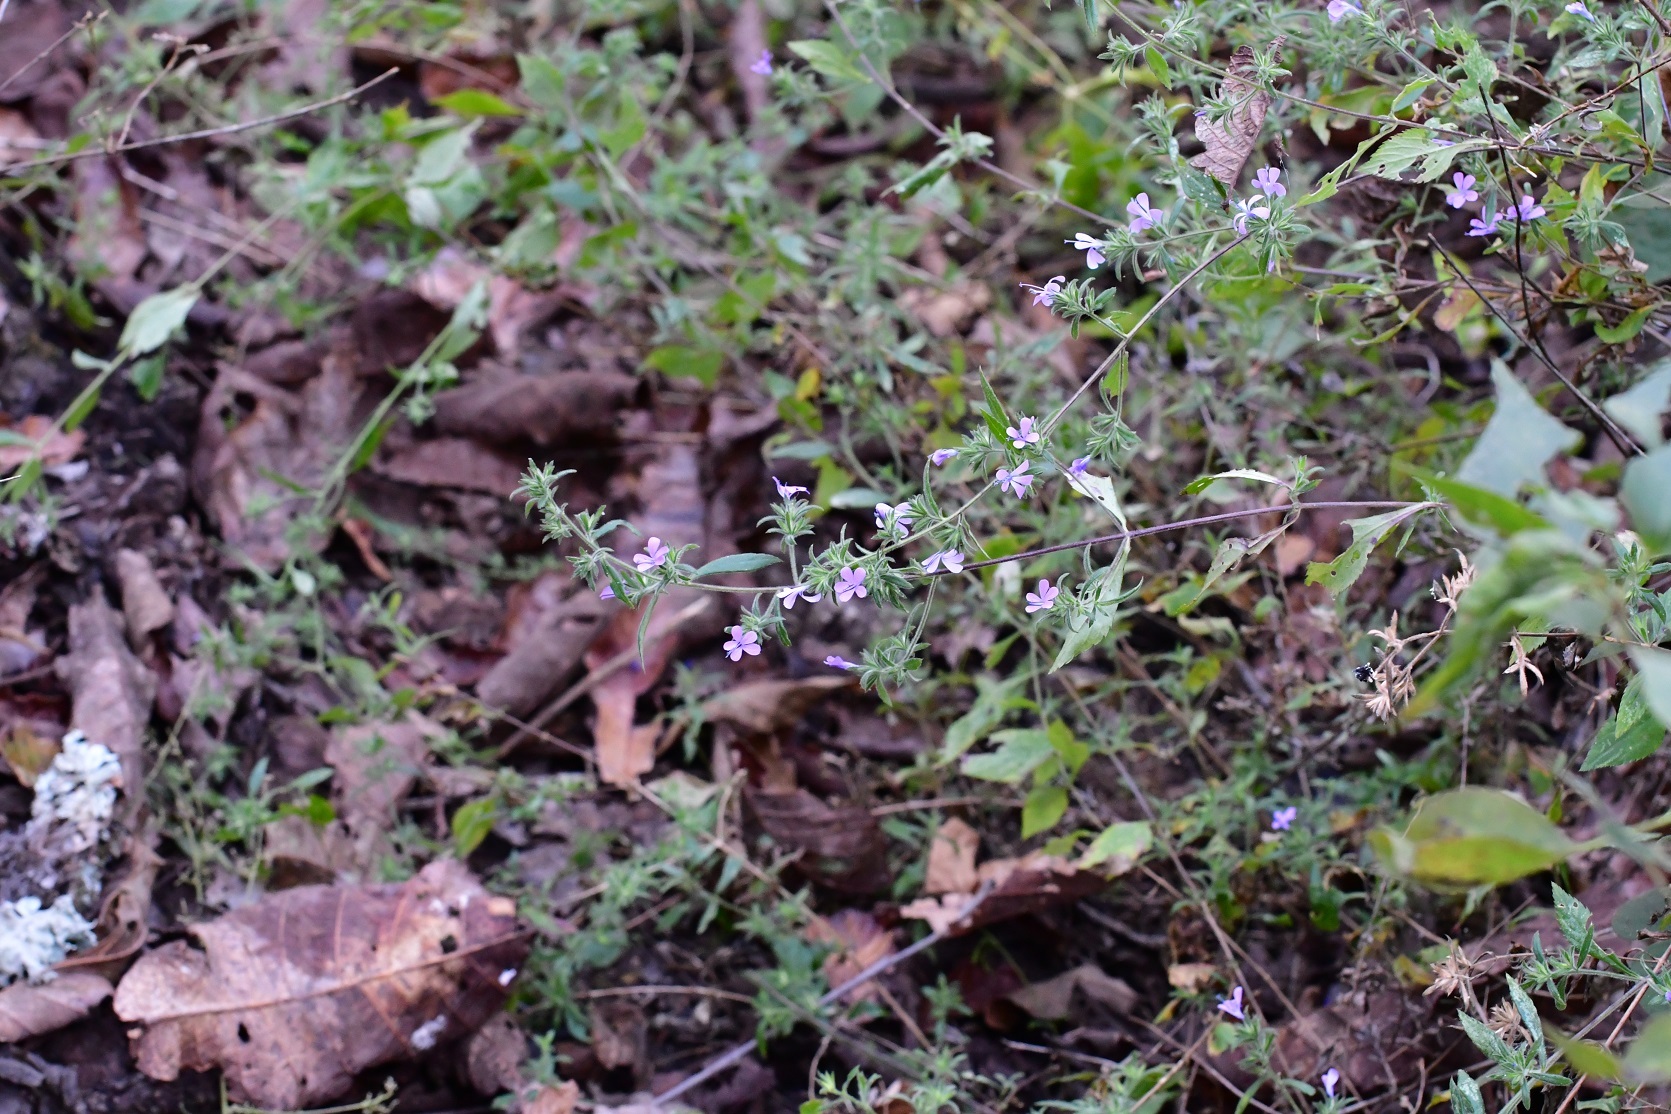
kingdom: Plantae
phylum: Tracheophyta
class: Magnoliopsida
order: Ericales
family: Polemoniaceae
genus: Loeselia
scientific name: Loeselia glandulosa
